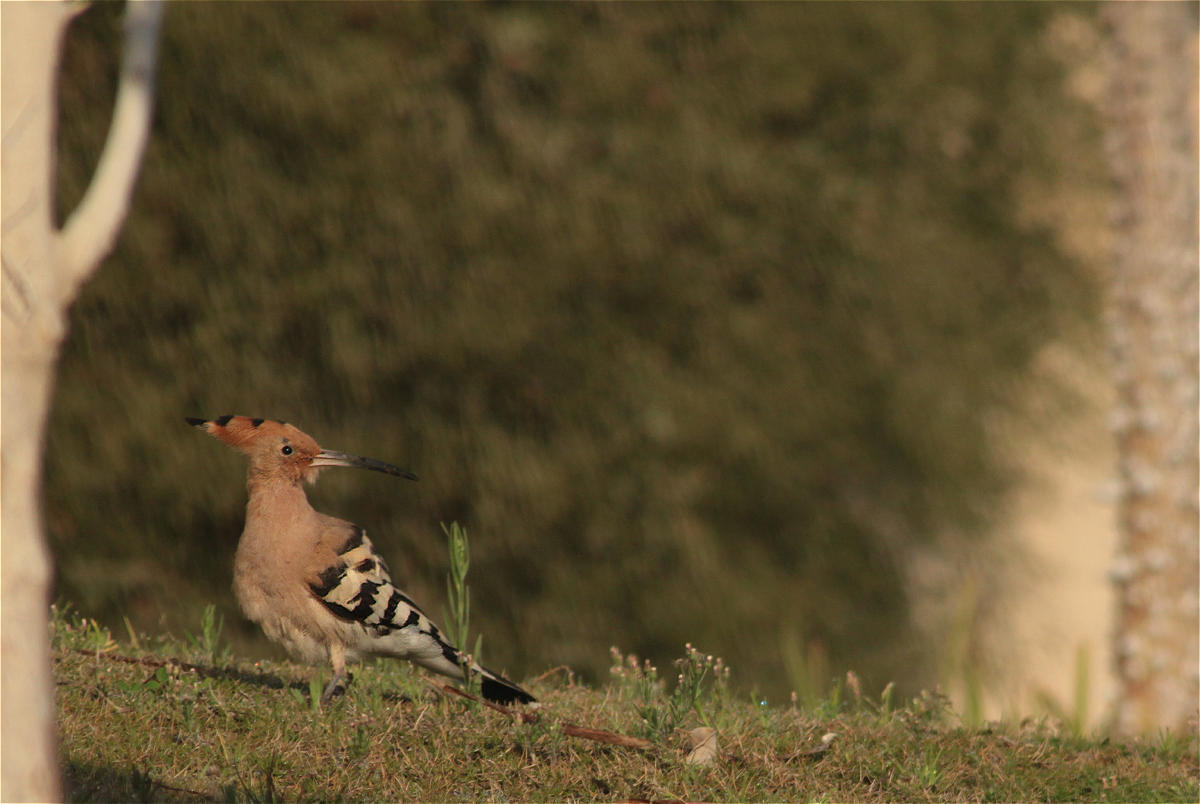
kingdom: Animalia
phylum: Chordata
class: Aves
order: Bucerotiformes
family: Upupidae
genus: Upupa
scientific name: Upupa epops
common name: Eurasian hoopoe
